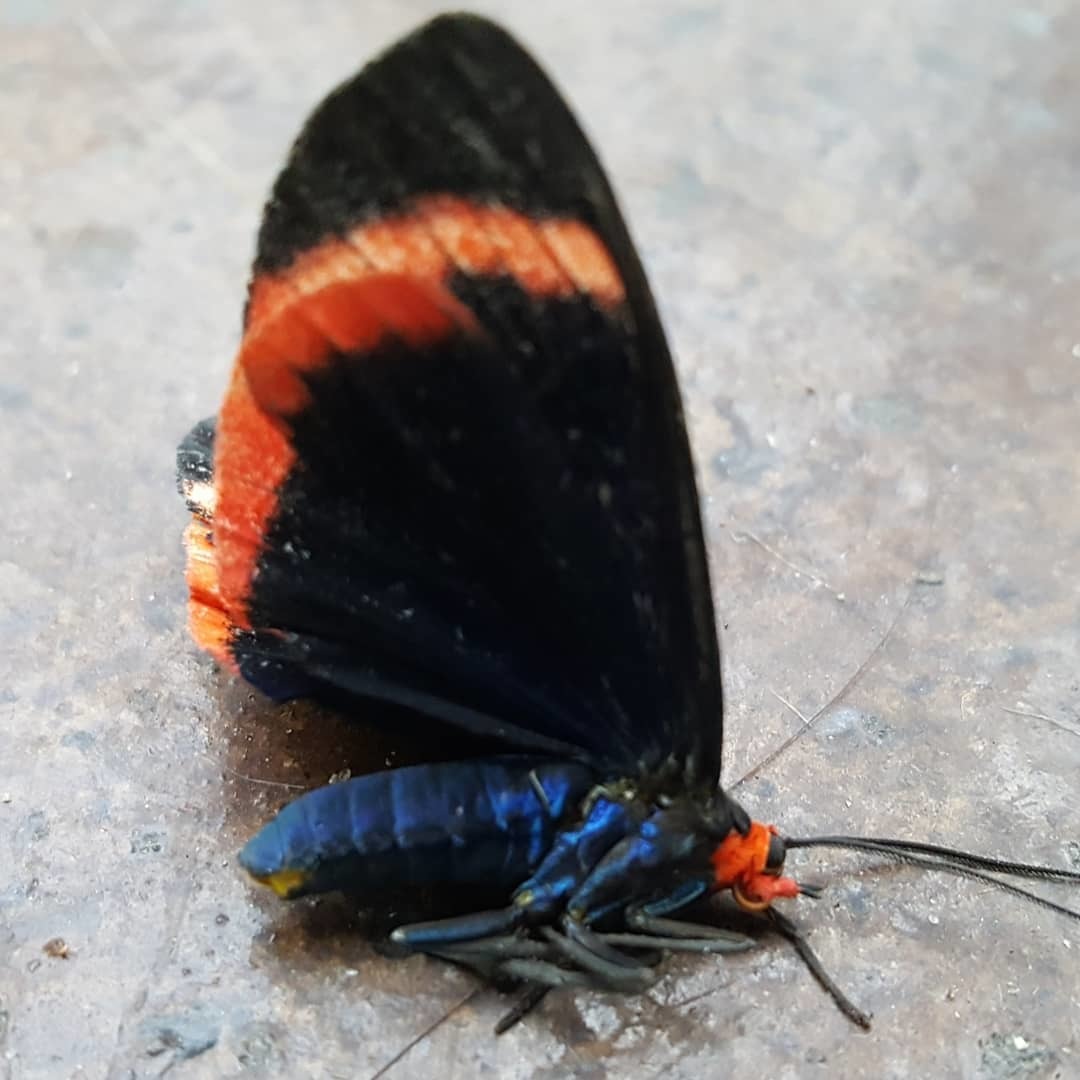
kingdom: Animalia
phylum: Arthropoda
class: Insecta
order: Lepidoptera
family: Erebidae
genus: Coreura
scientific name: Coreura albicosta
